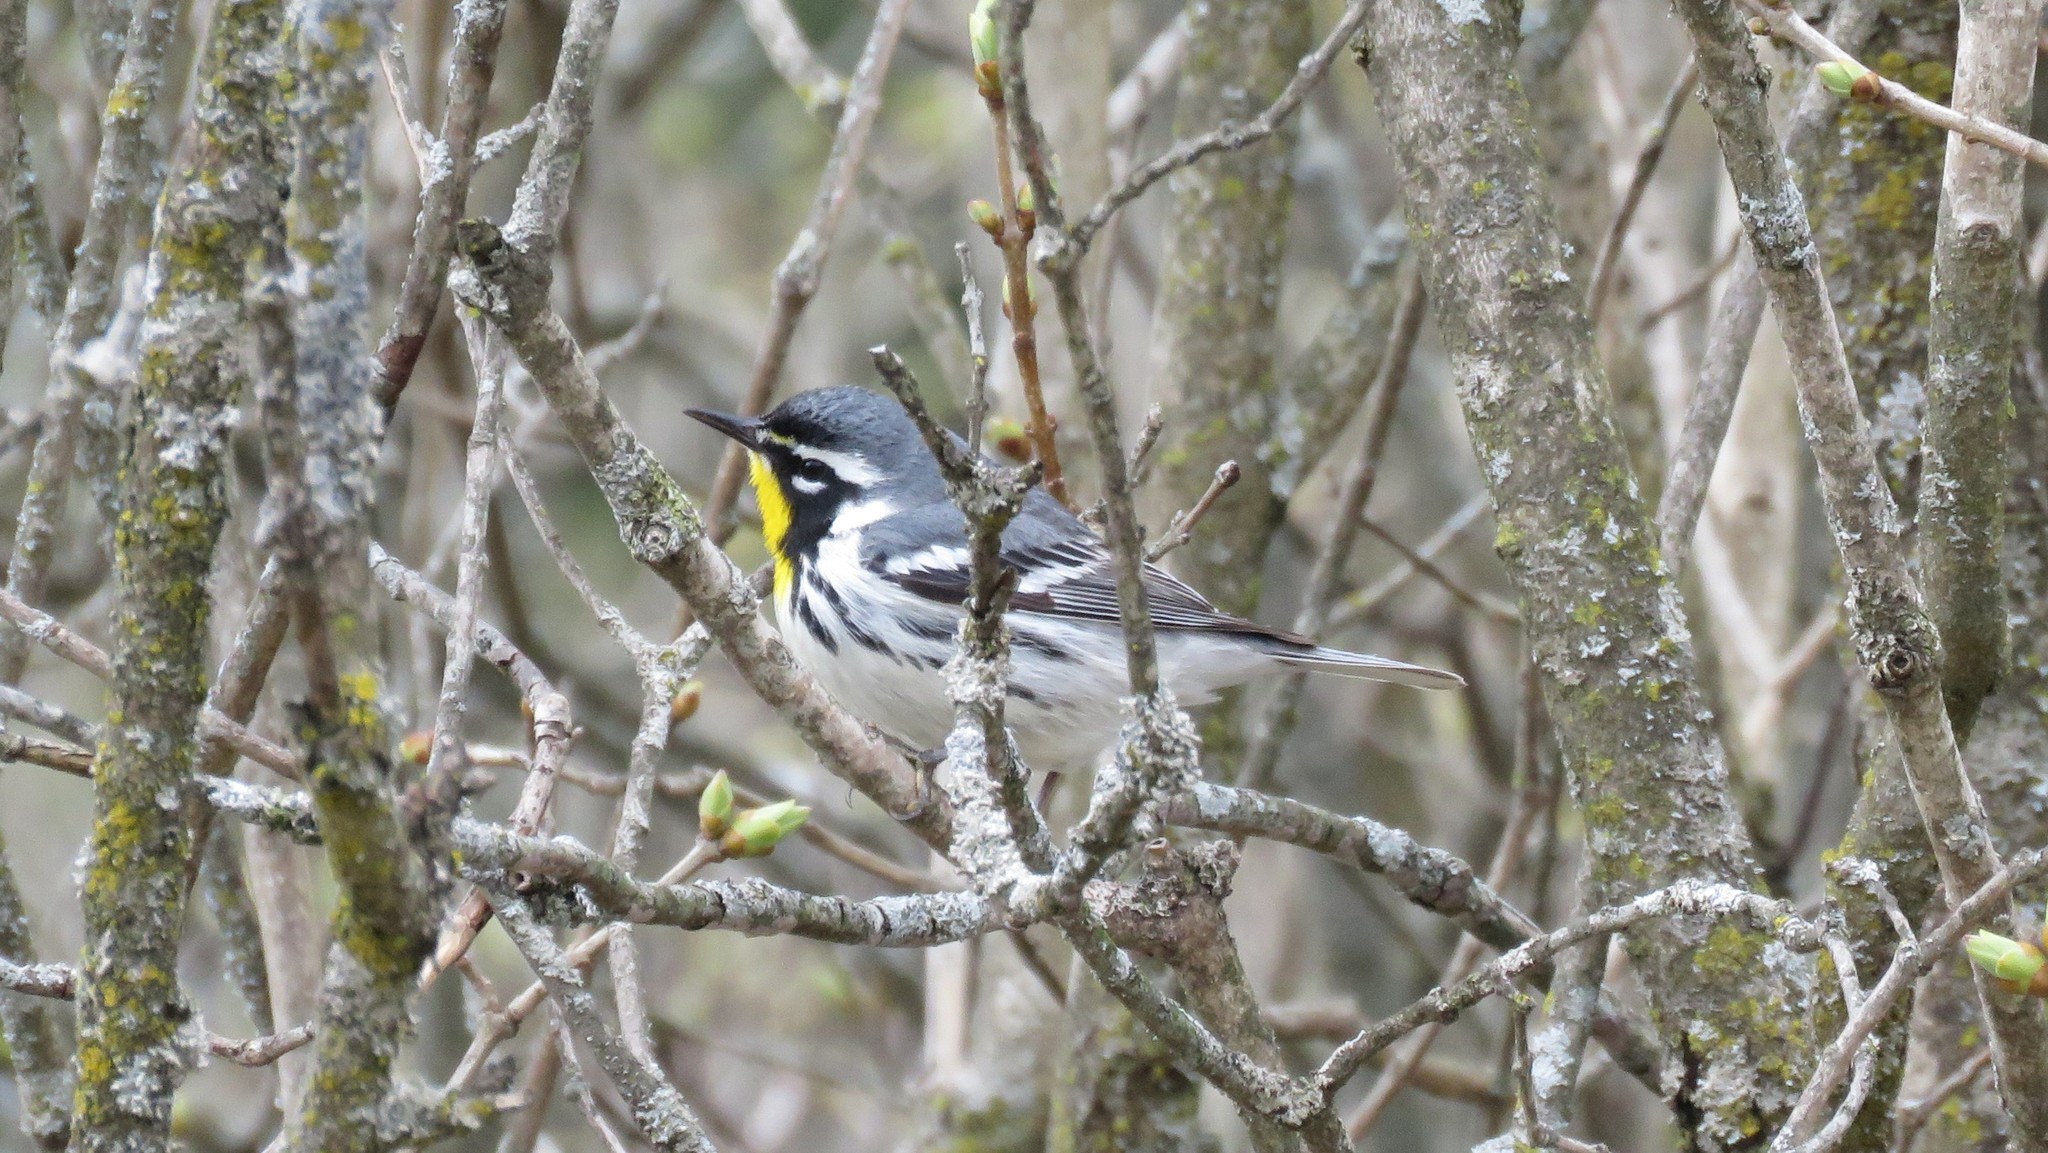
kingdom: Animalia
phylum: Chordata
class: Aves
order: Passeriformes
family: Parulidae
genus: Setophaga
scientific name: Setophaga dominica
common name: Yellow-throated warbler
